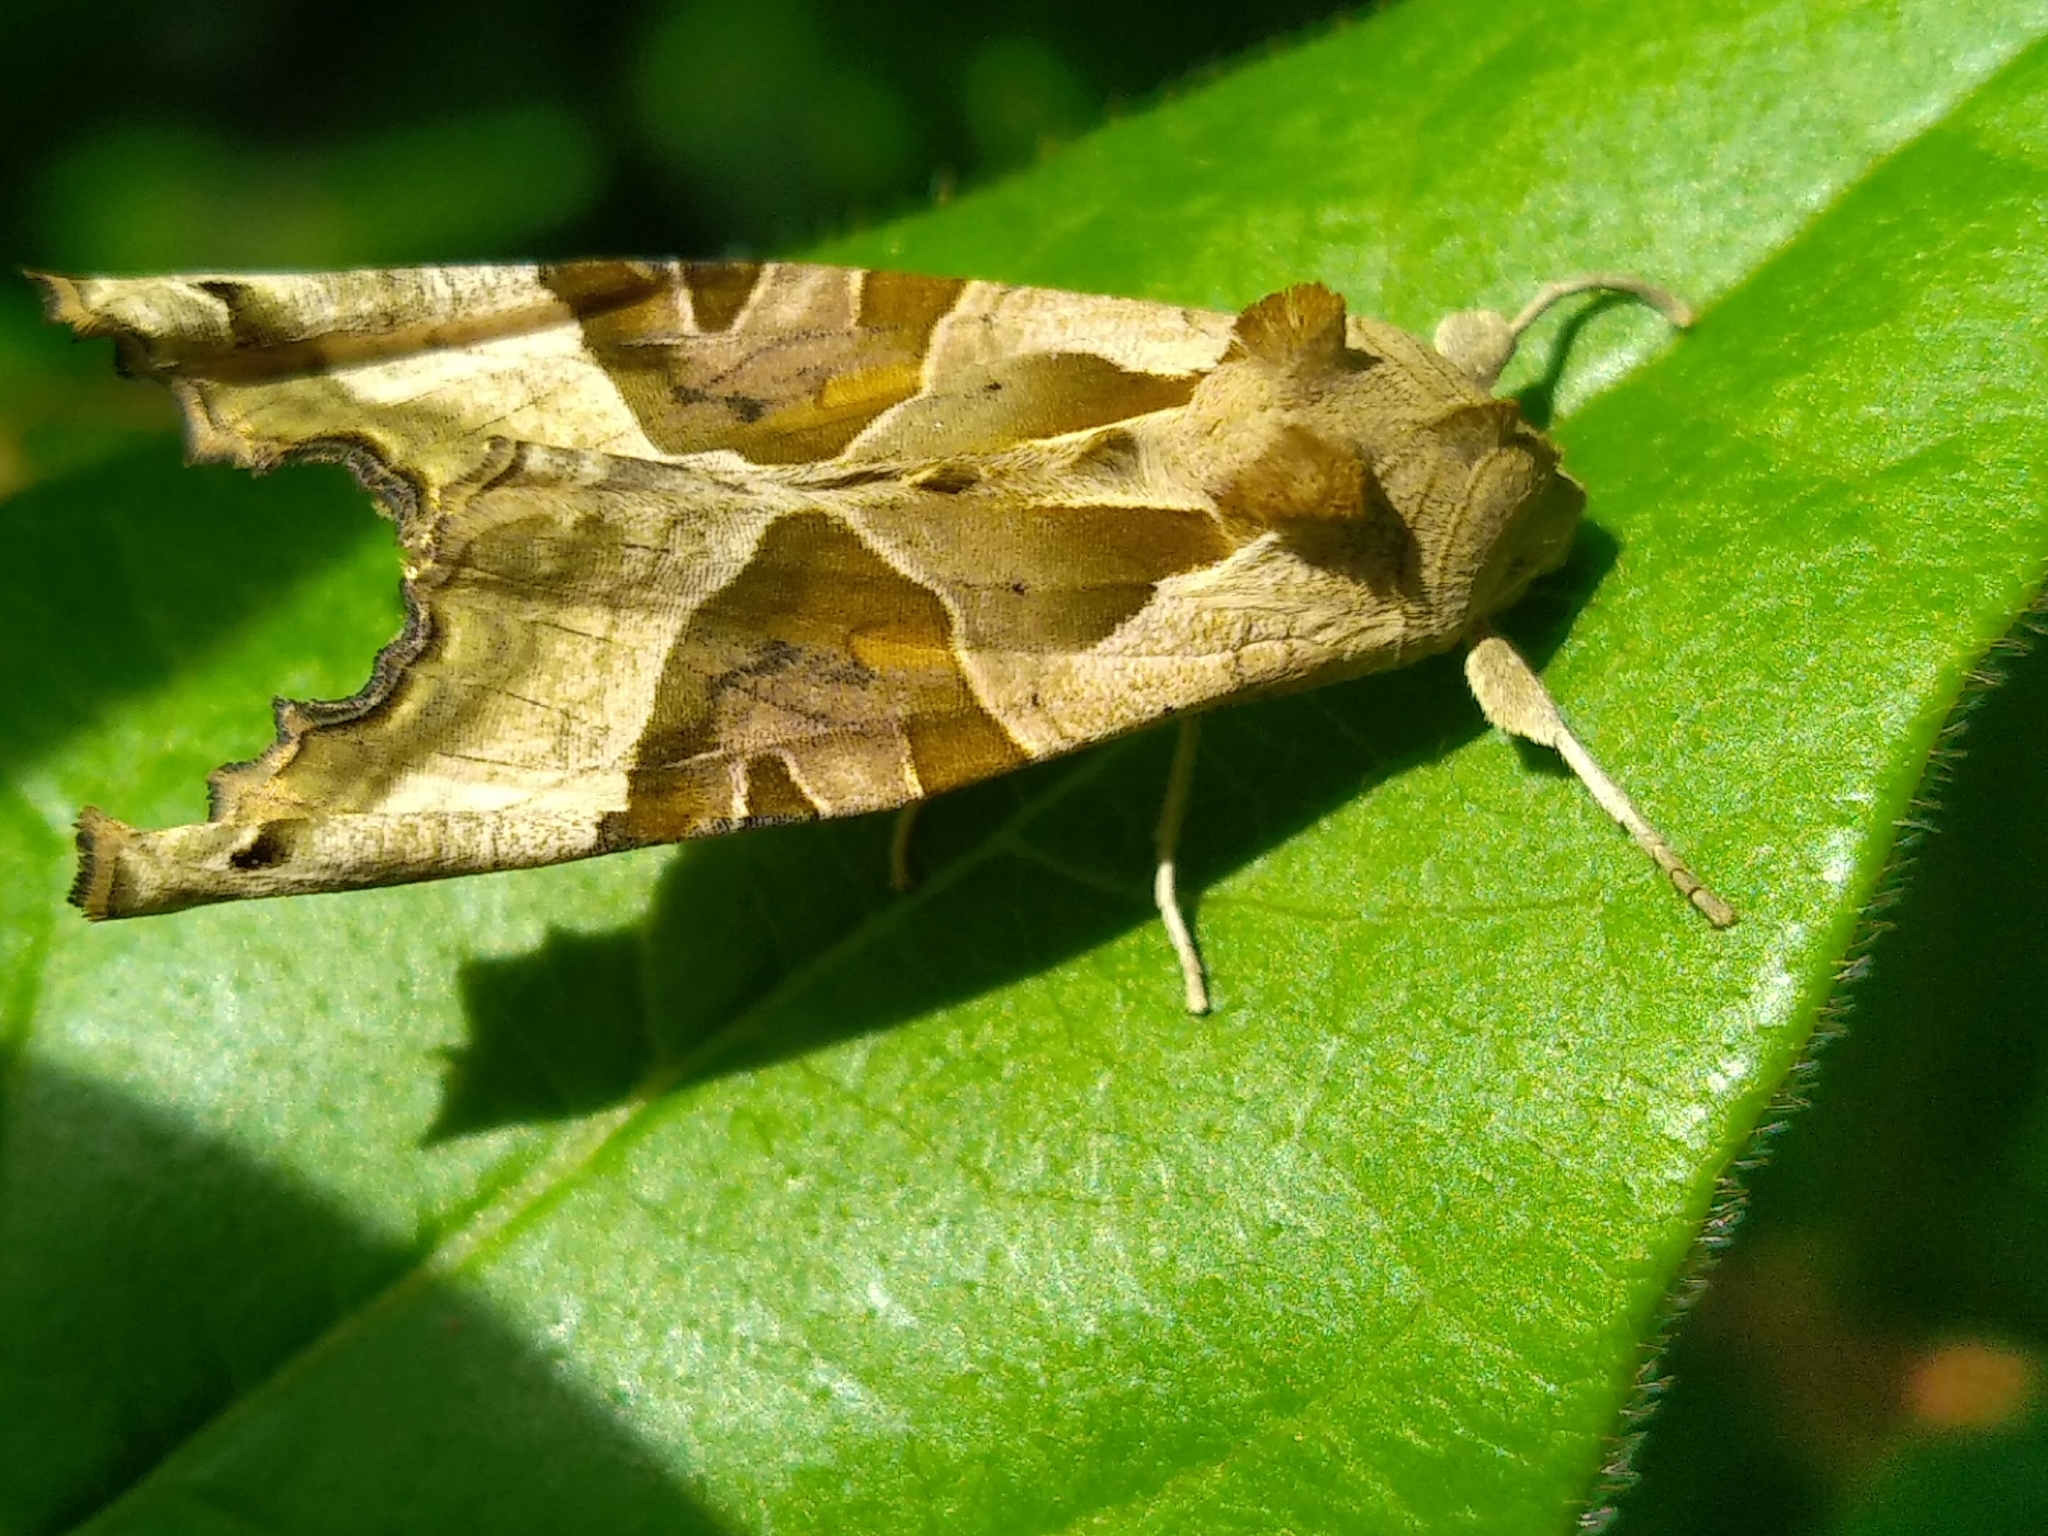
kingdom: Animalia
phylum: Arthropoda
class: Insecta
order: Lepidoptera
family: Noctuidae
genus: Phlogophora
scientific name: Phlogophora meticulosa
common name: Angle shades
